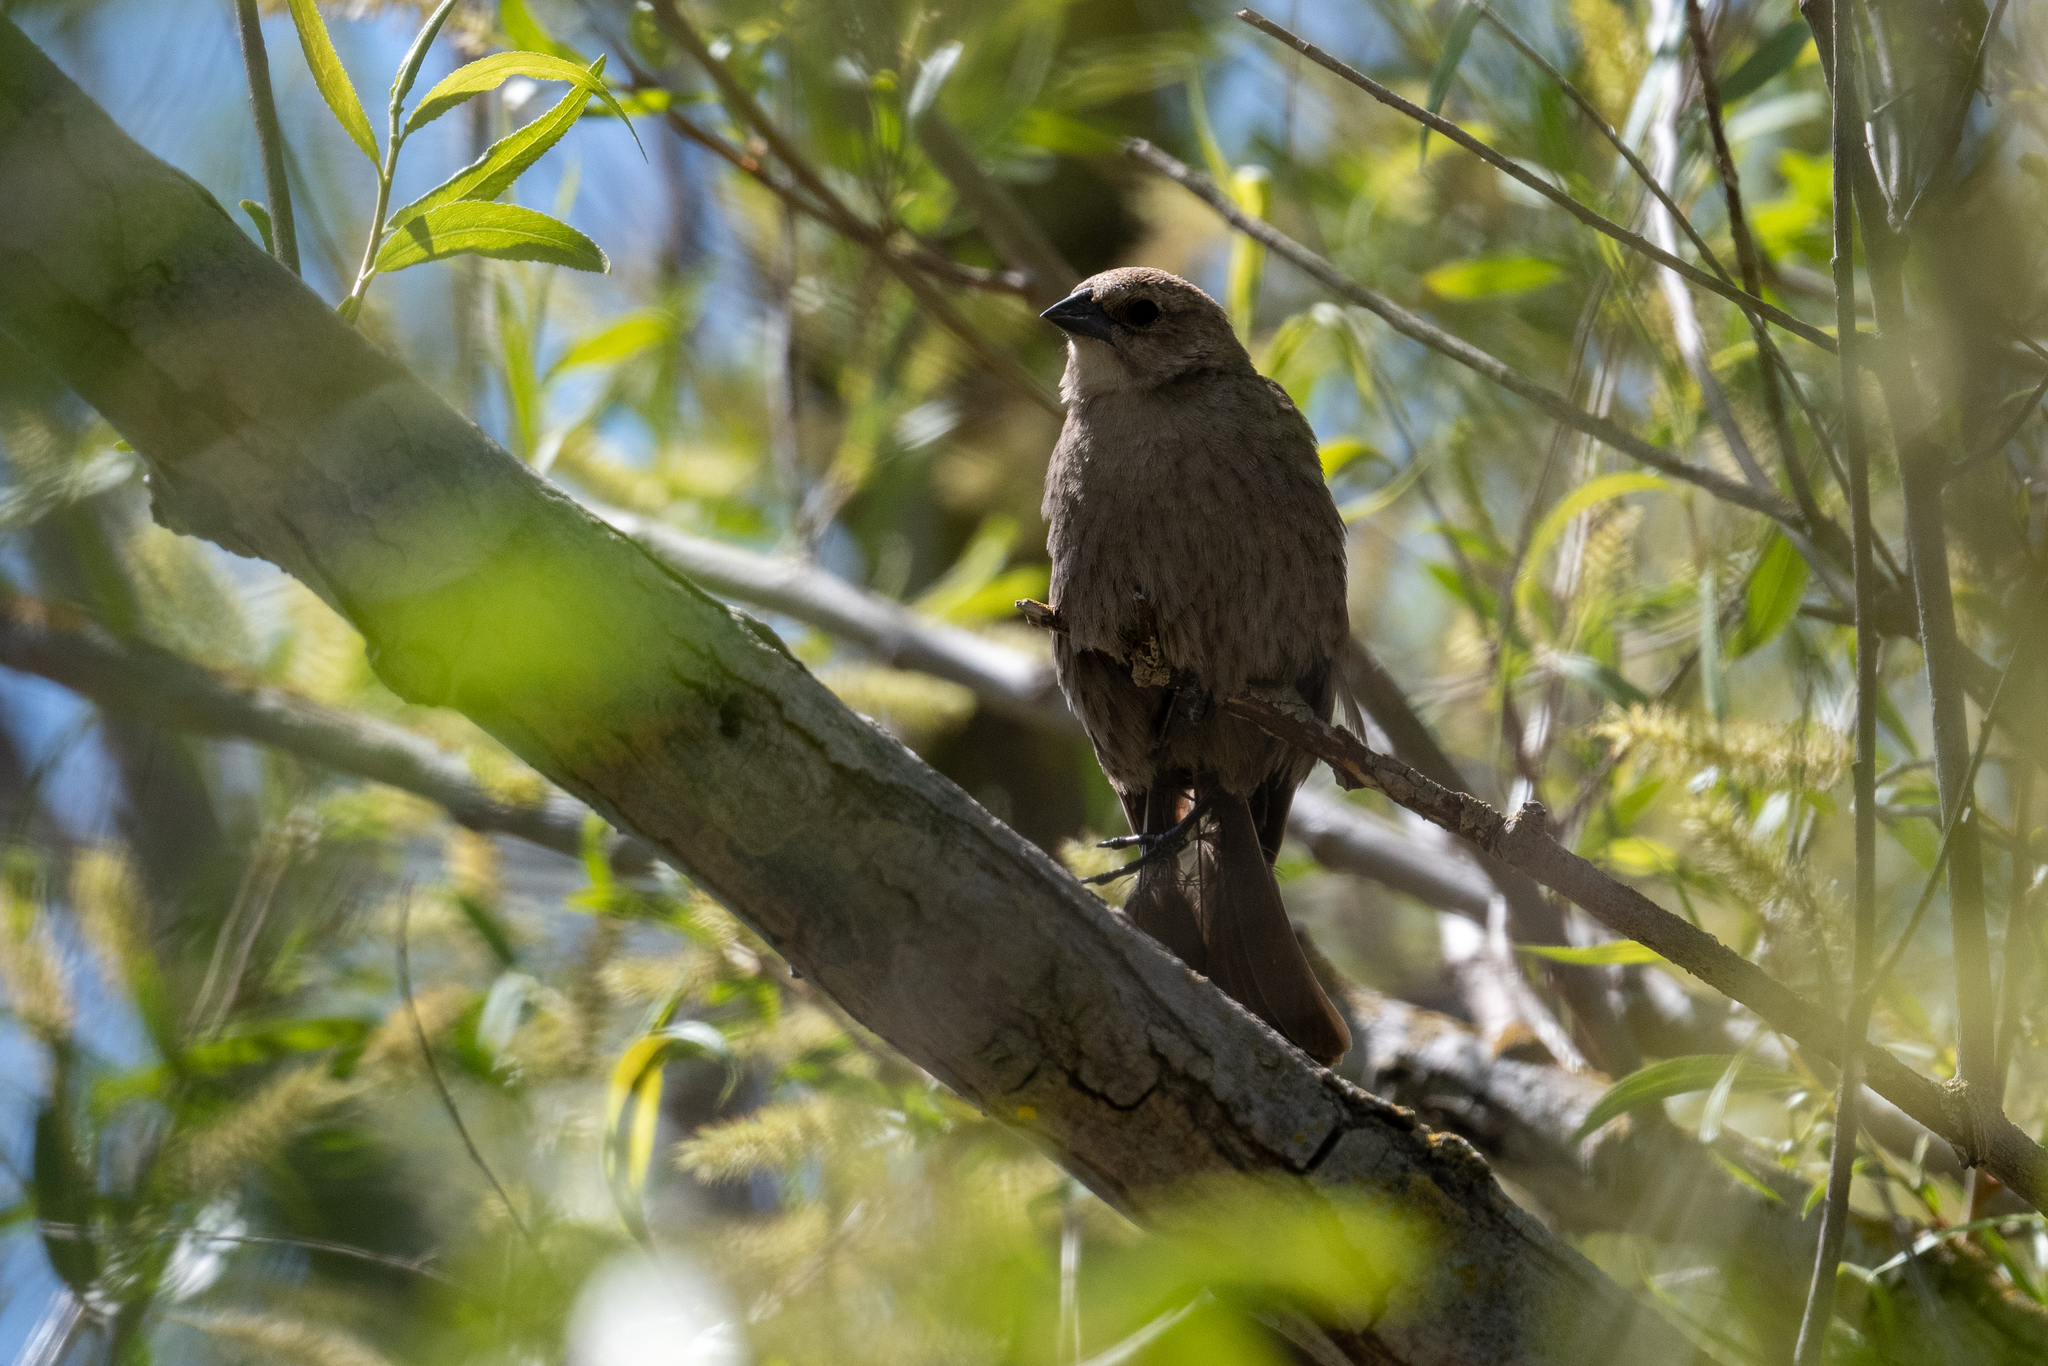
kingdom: Animalia
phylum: Chordata
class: Aves
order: Passeriformes
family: Icteridae
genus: Molothrus
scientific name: Molothrus ater
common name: Brown-headed cowbird
